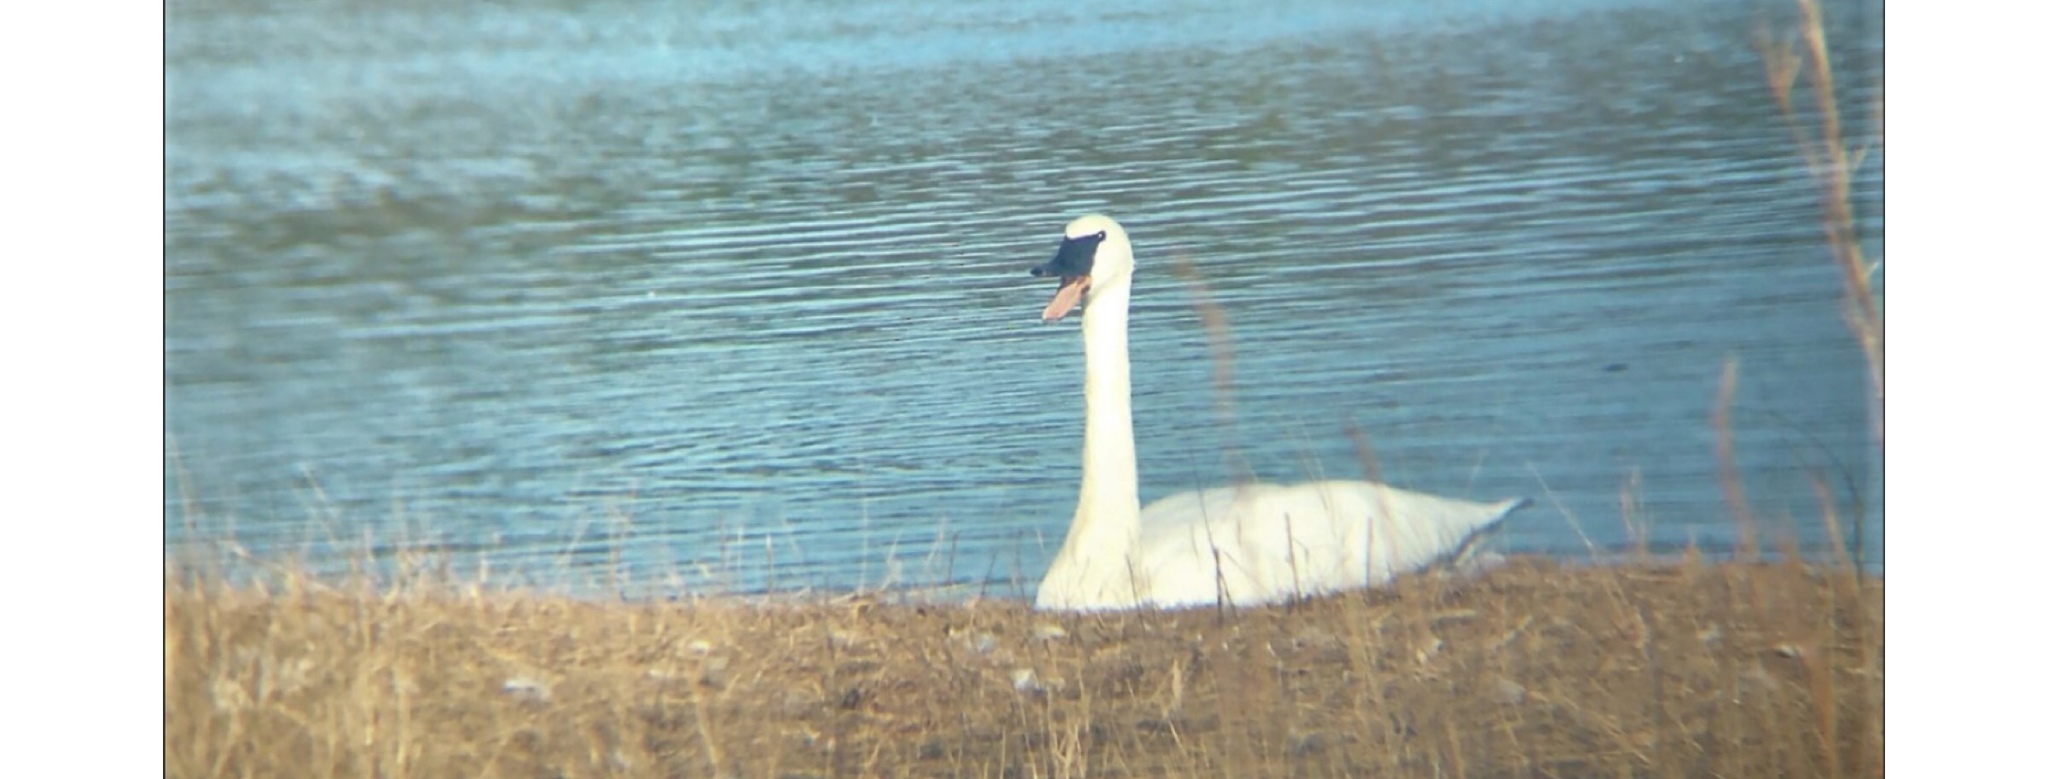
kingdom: Animalia
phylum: Chordata
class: Aves
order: Anseriformes
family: Anatidae
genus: Cygnus
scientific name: Cygnus buccinator
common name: Trumpeter swan
